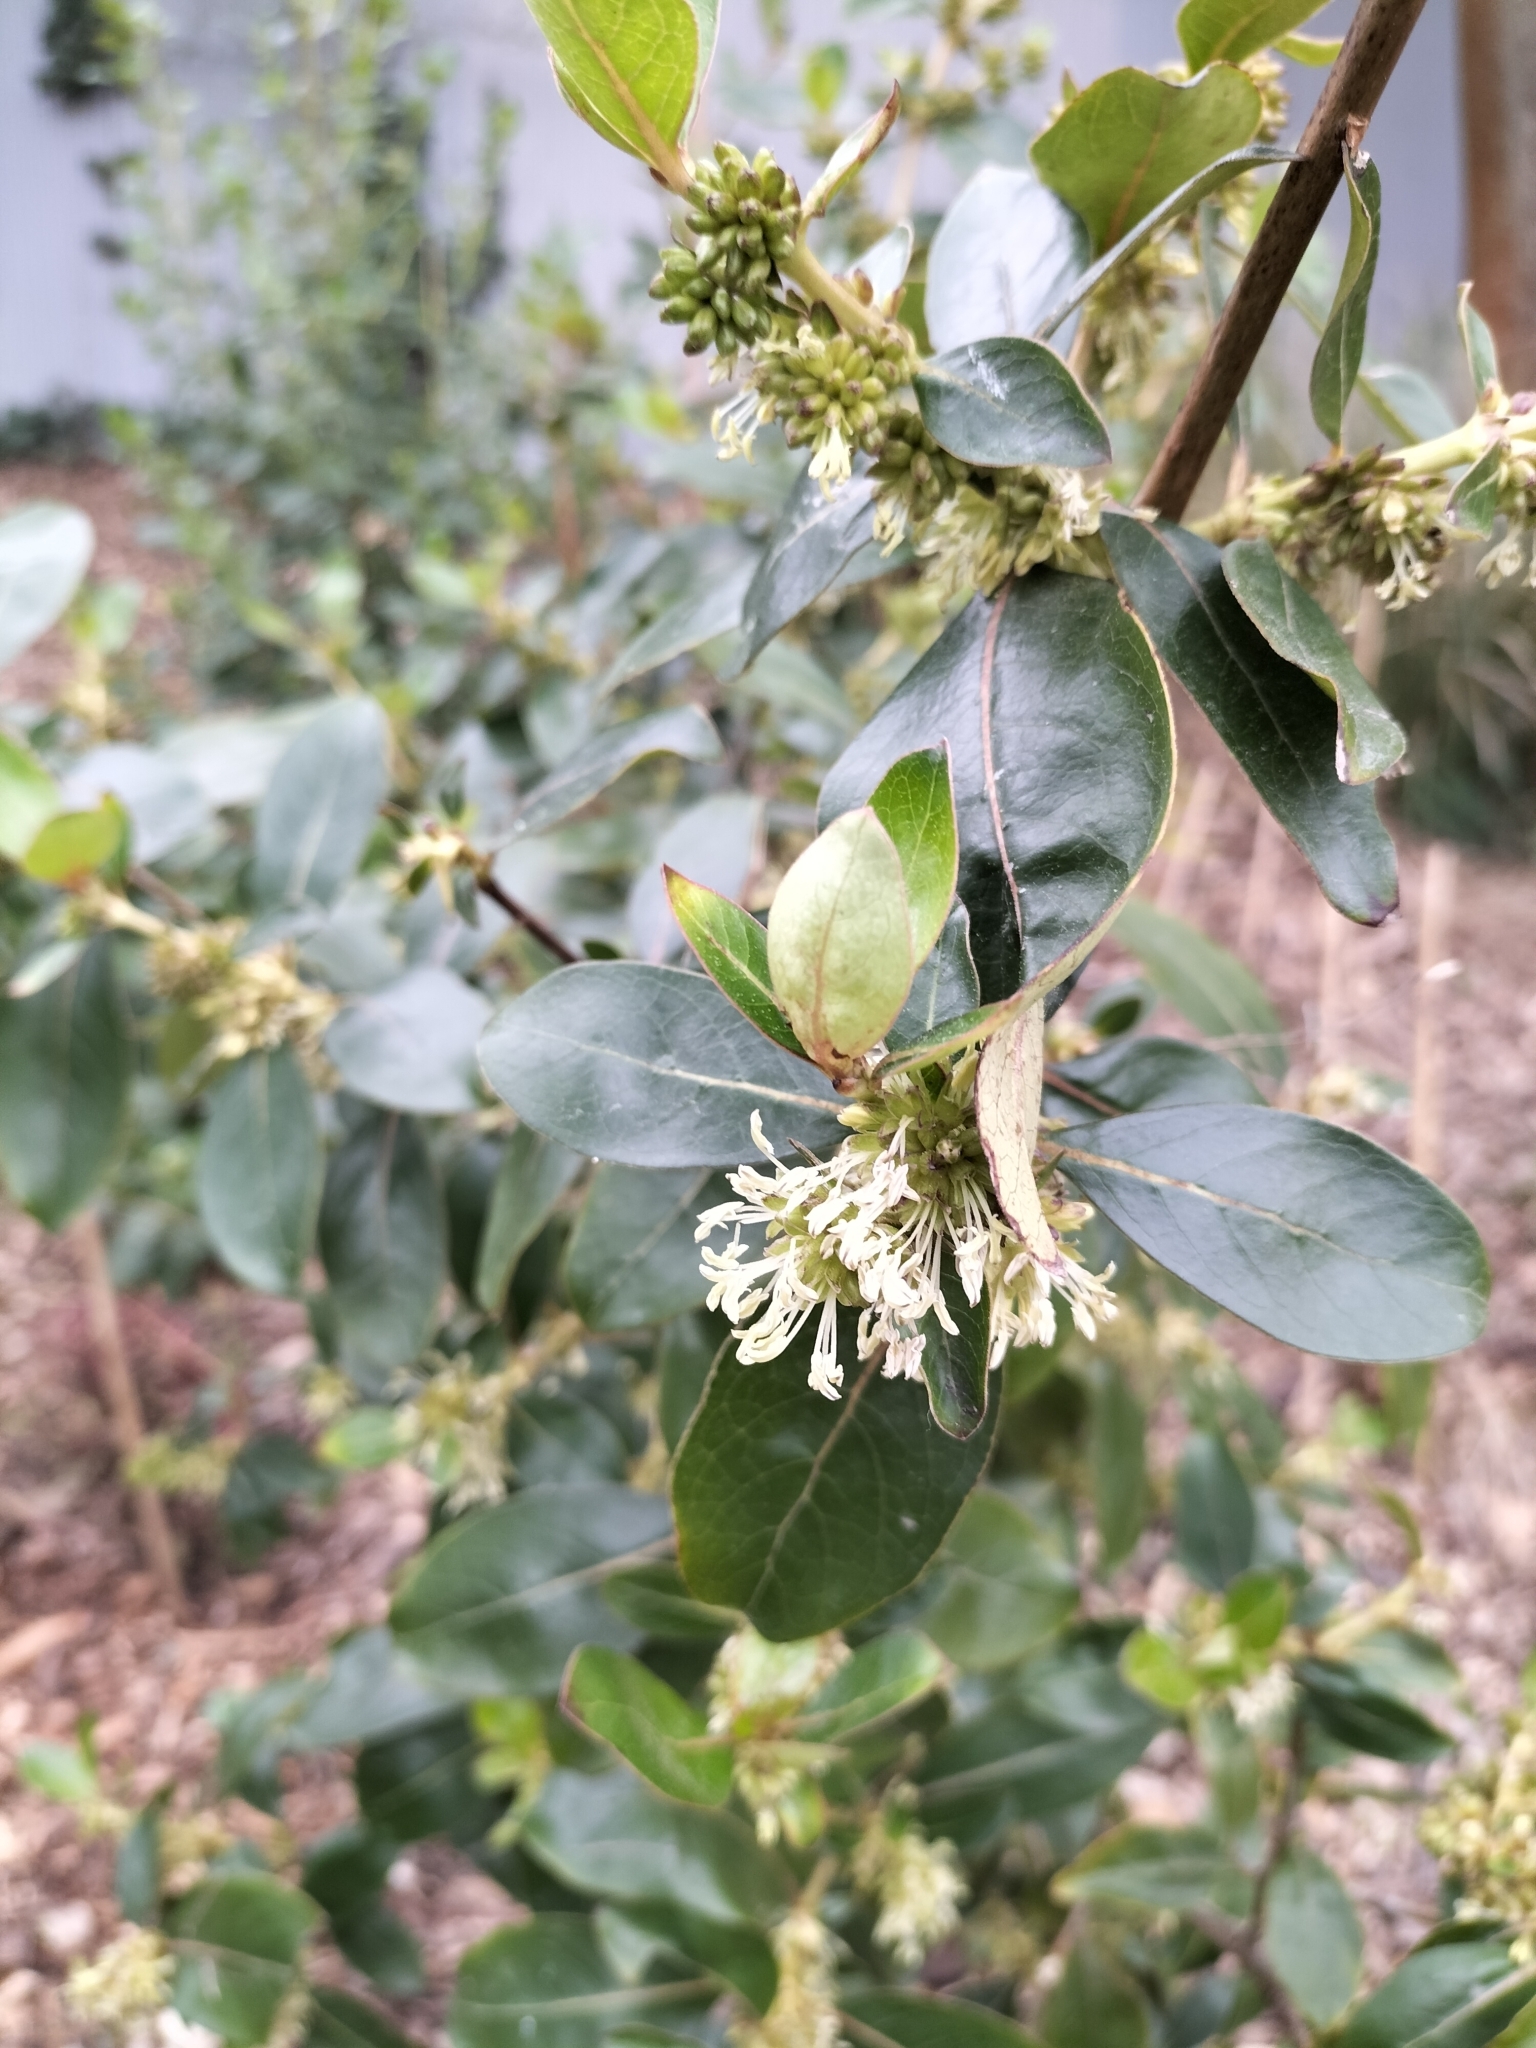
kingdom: Plantae
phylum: Tracheophyta
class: Magnoliopsida
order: Gentianales
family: Rubiaceae
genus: Coprosma
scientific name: Coprosma robusta
